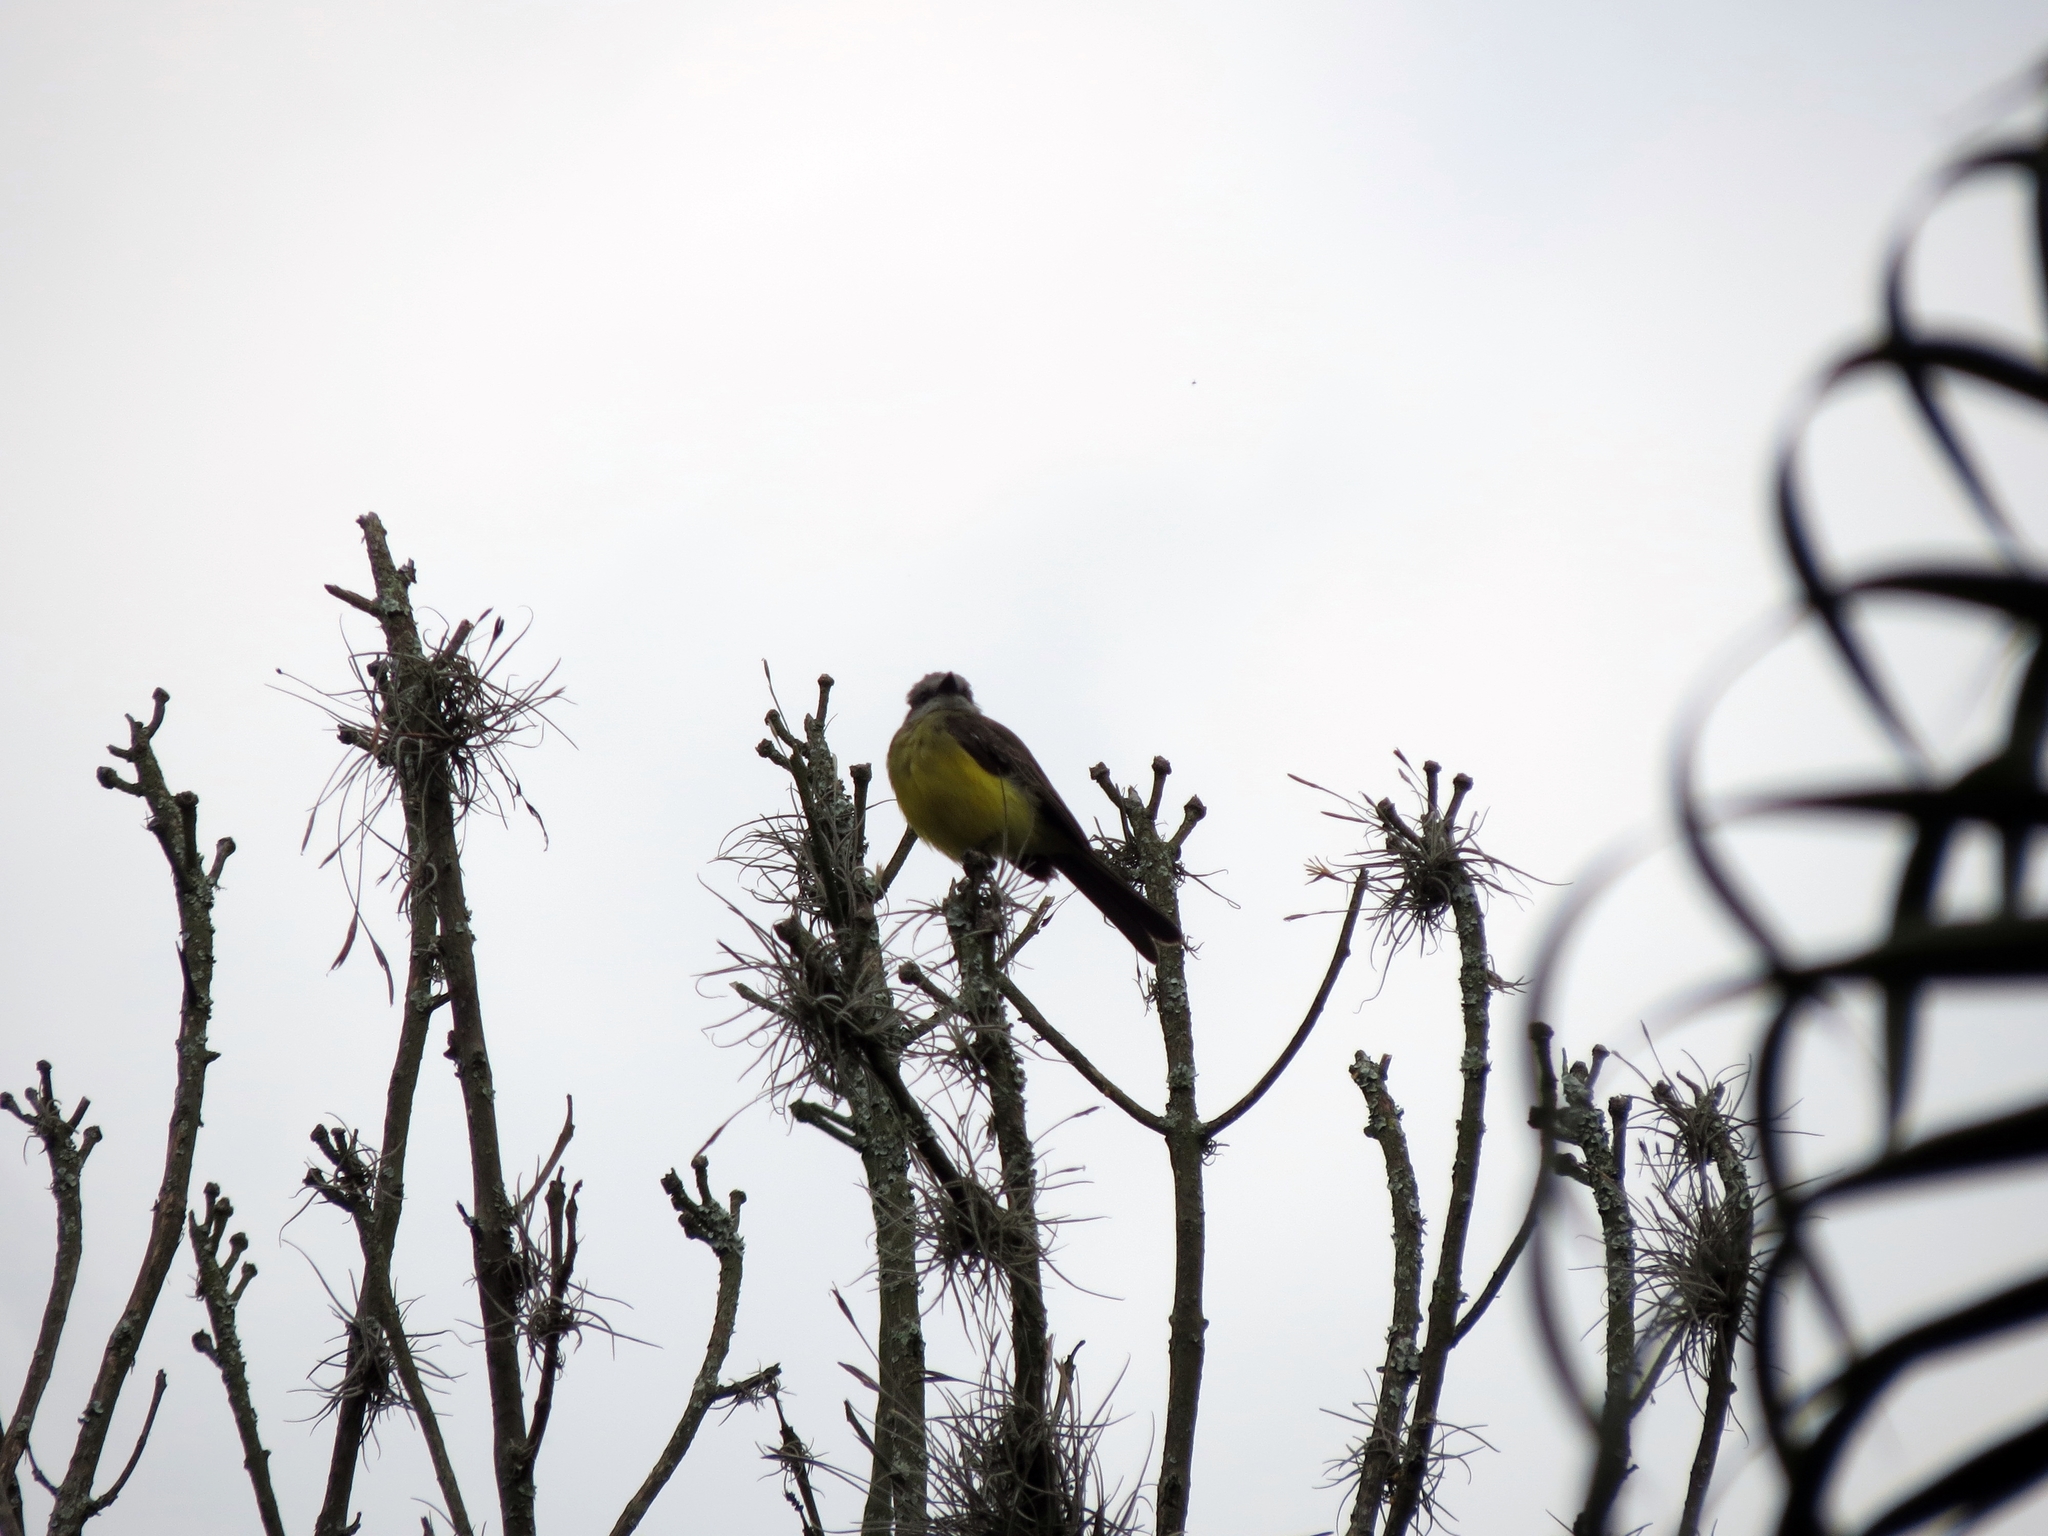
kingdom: Animalia
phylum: Chordata
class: Aves
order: Passeriformes
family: Tyrannidae
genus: Tyrannus
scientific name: Tyrannus melancholicus
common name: Tropical kingbird
